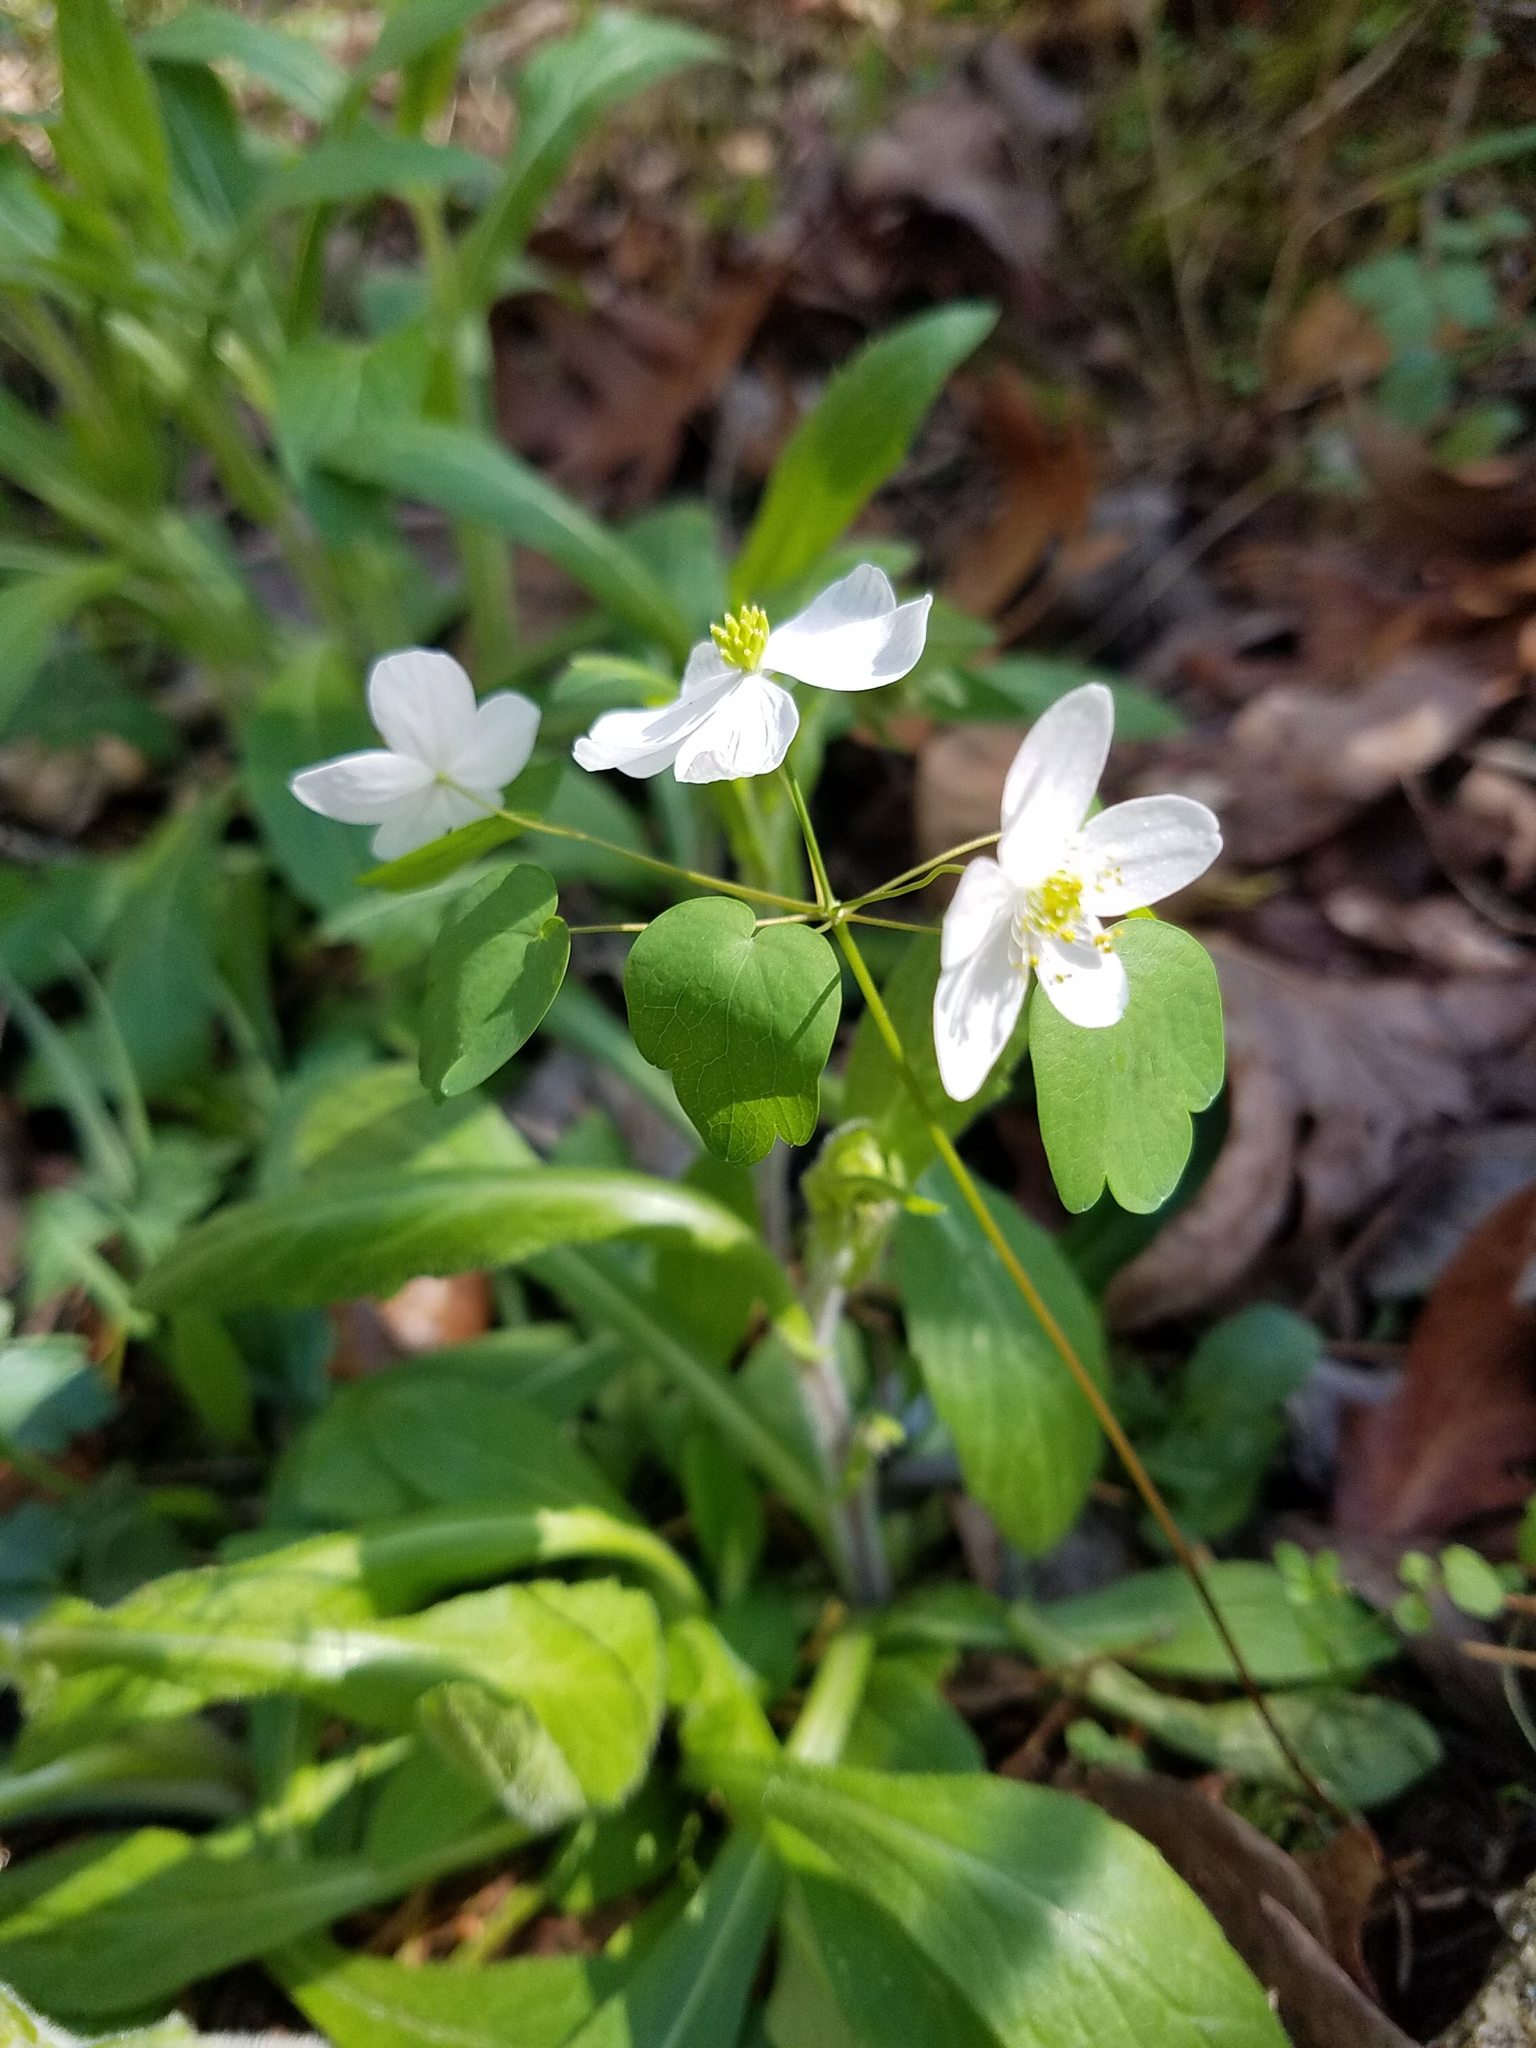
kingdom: Plantae
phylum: Tracheophyta
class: Magnoliopsida
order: Ranunculales
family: Ranunculaceae
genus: Thalictrum
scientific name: Thalictrum thalictroides
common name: Rue-anemone
